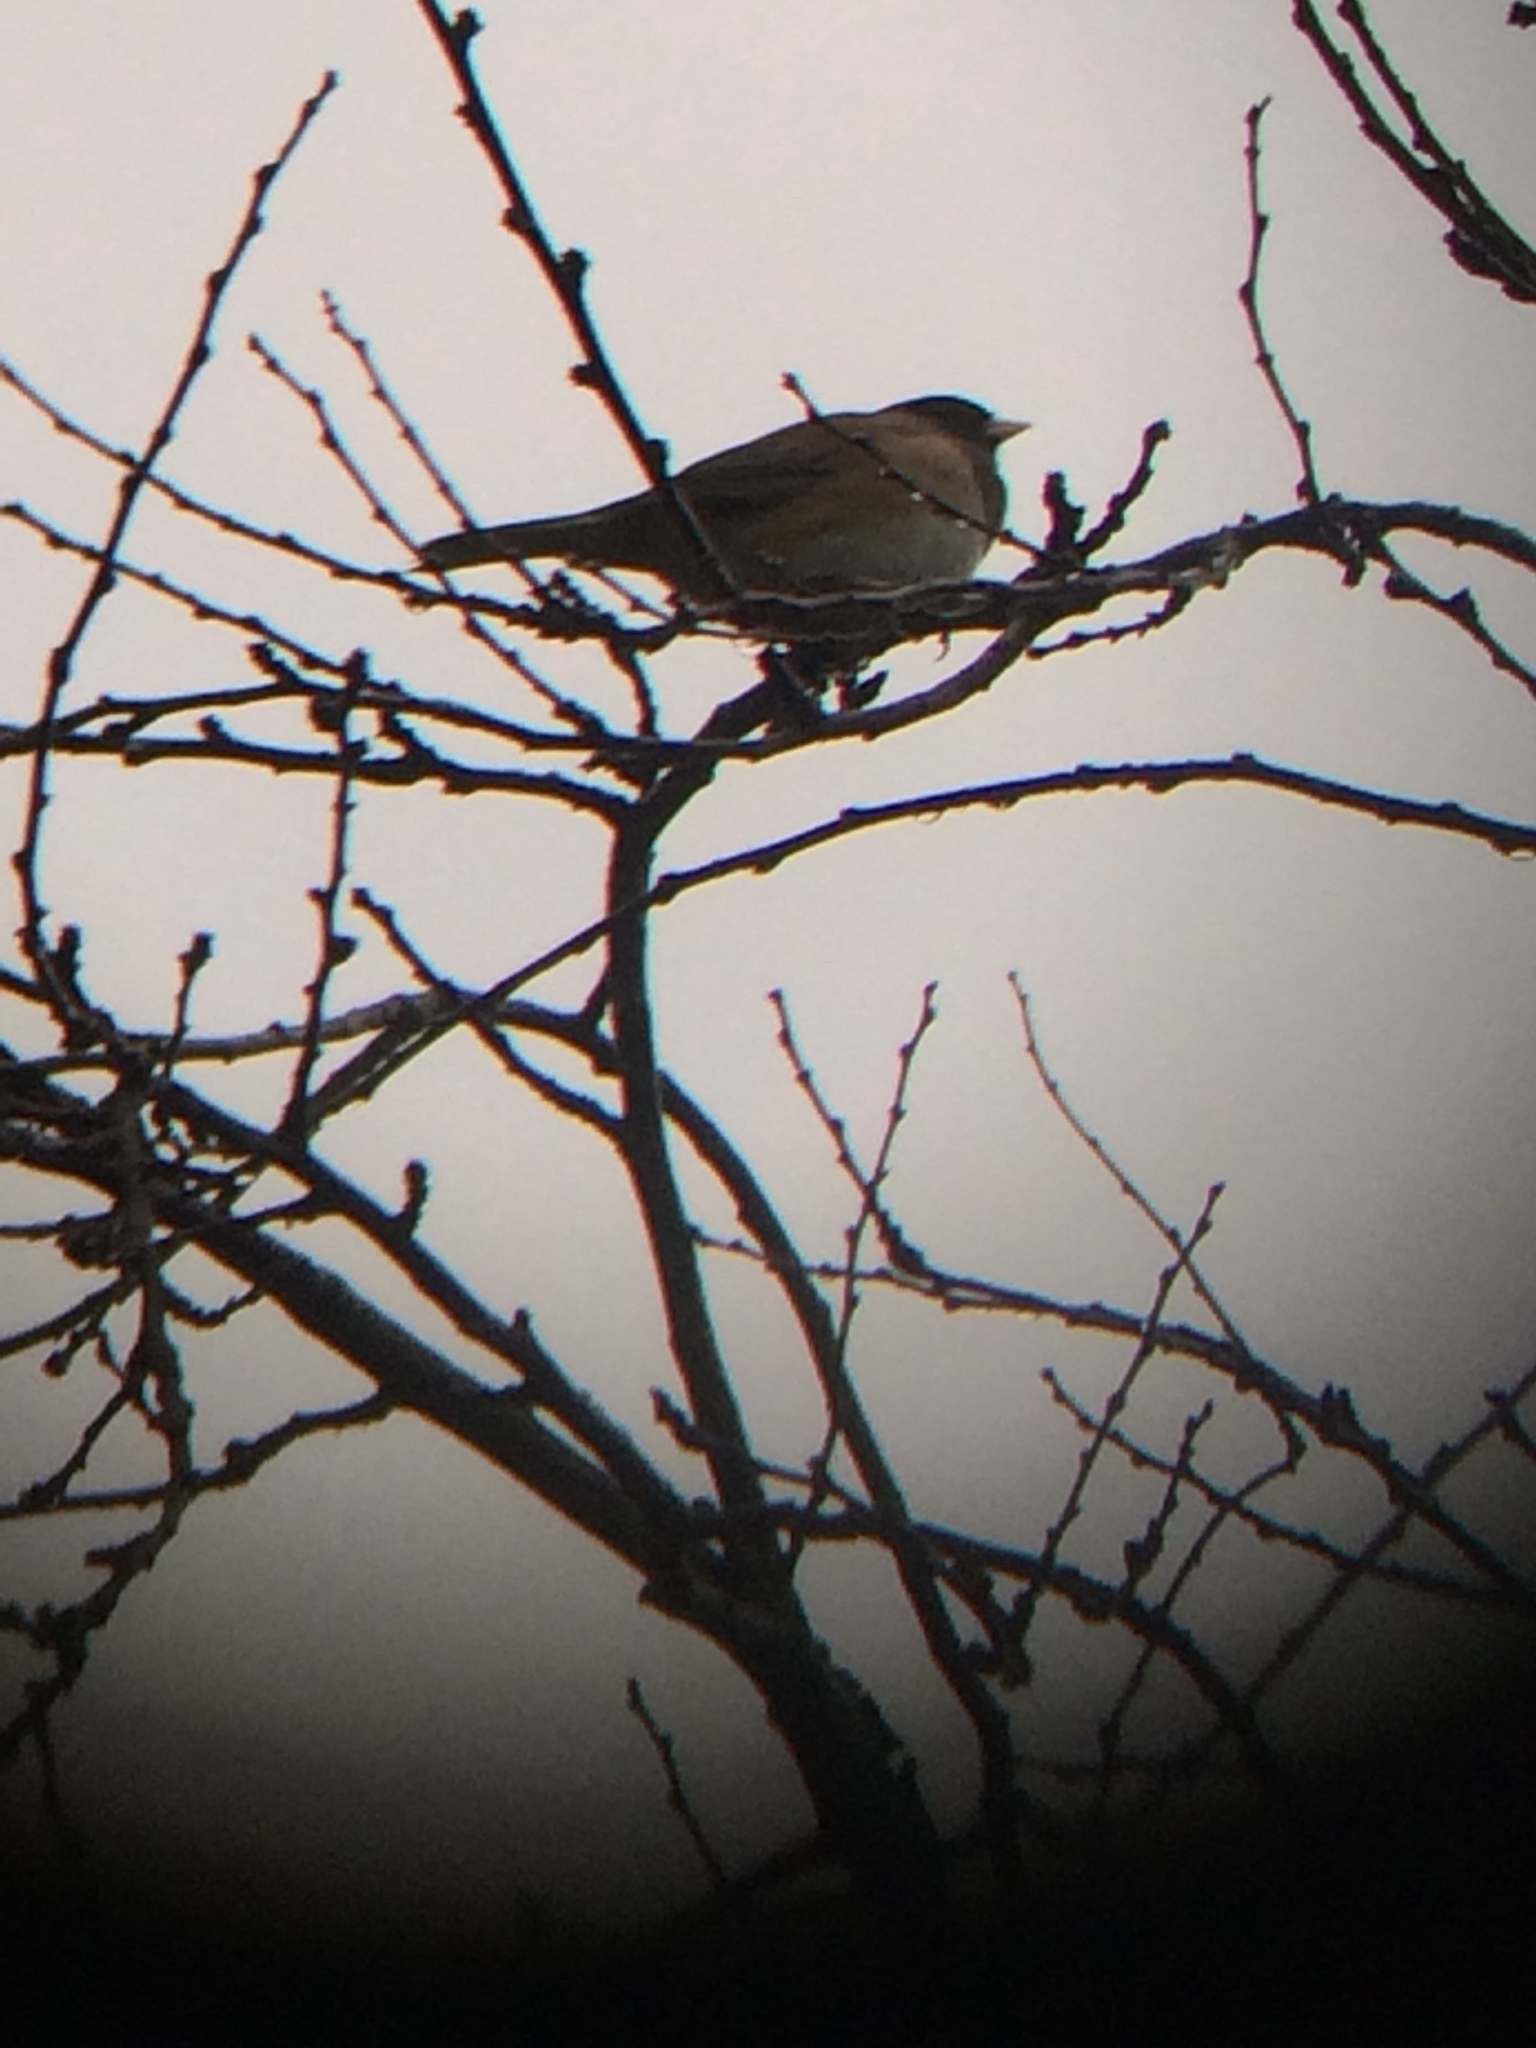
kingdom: Animalia
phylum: Chordata
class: Aves
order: Passeriformes
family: Passerellidae
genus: Junco
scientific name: Junco hyemalis
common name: Dark-eyed junco
